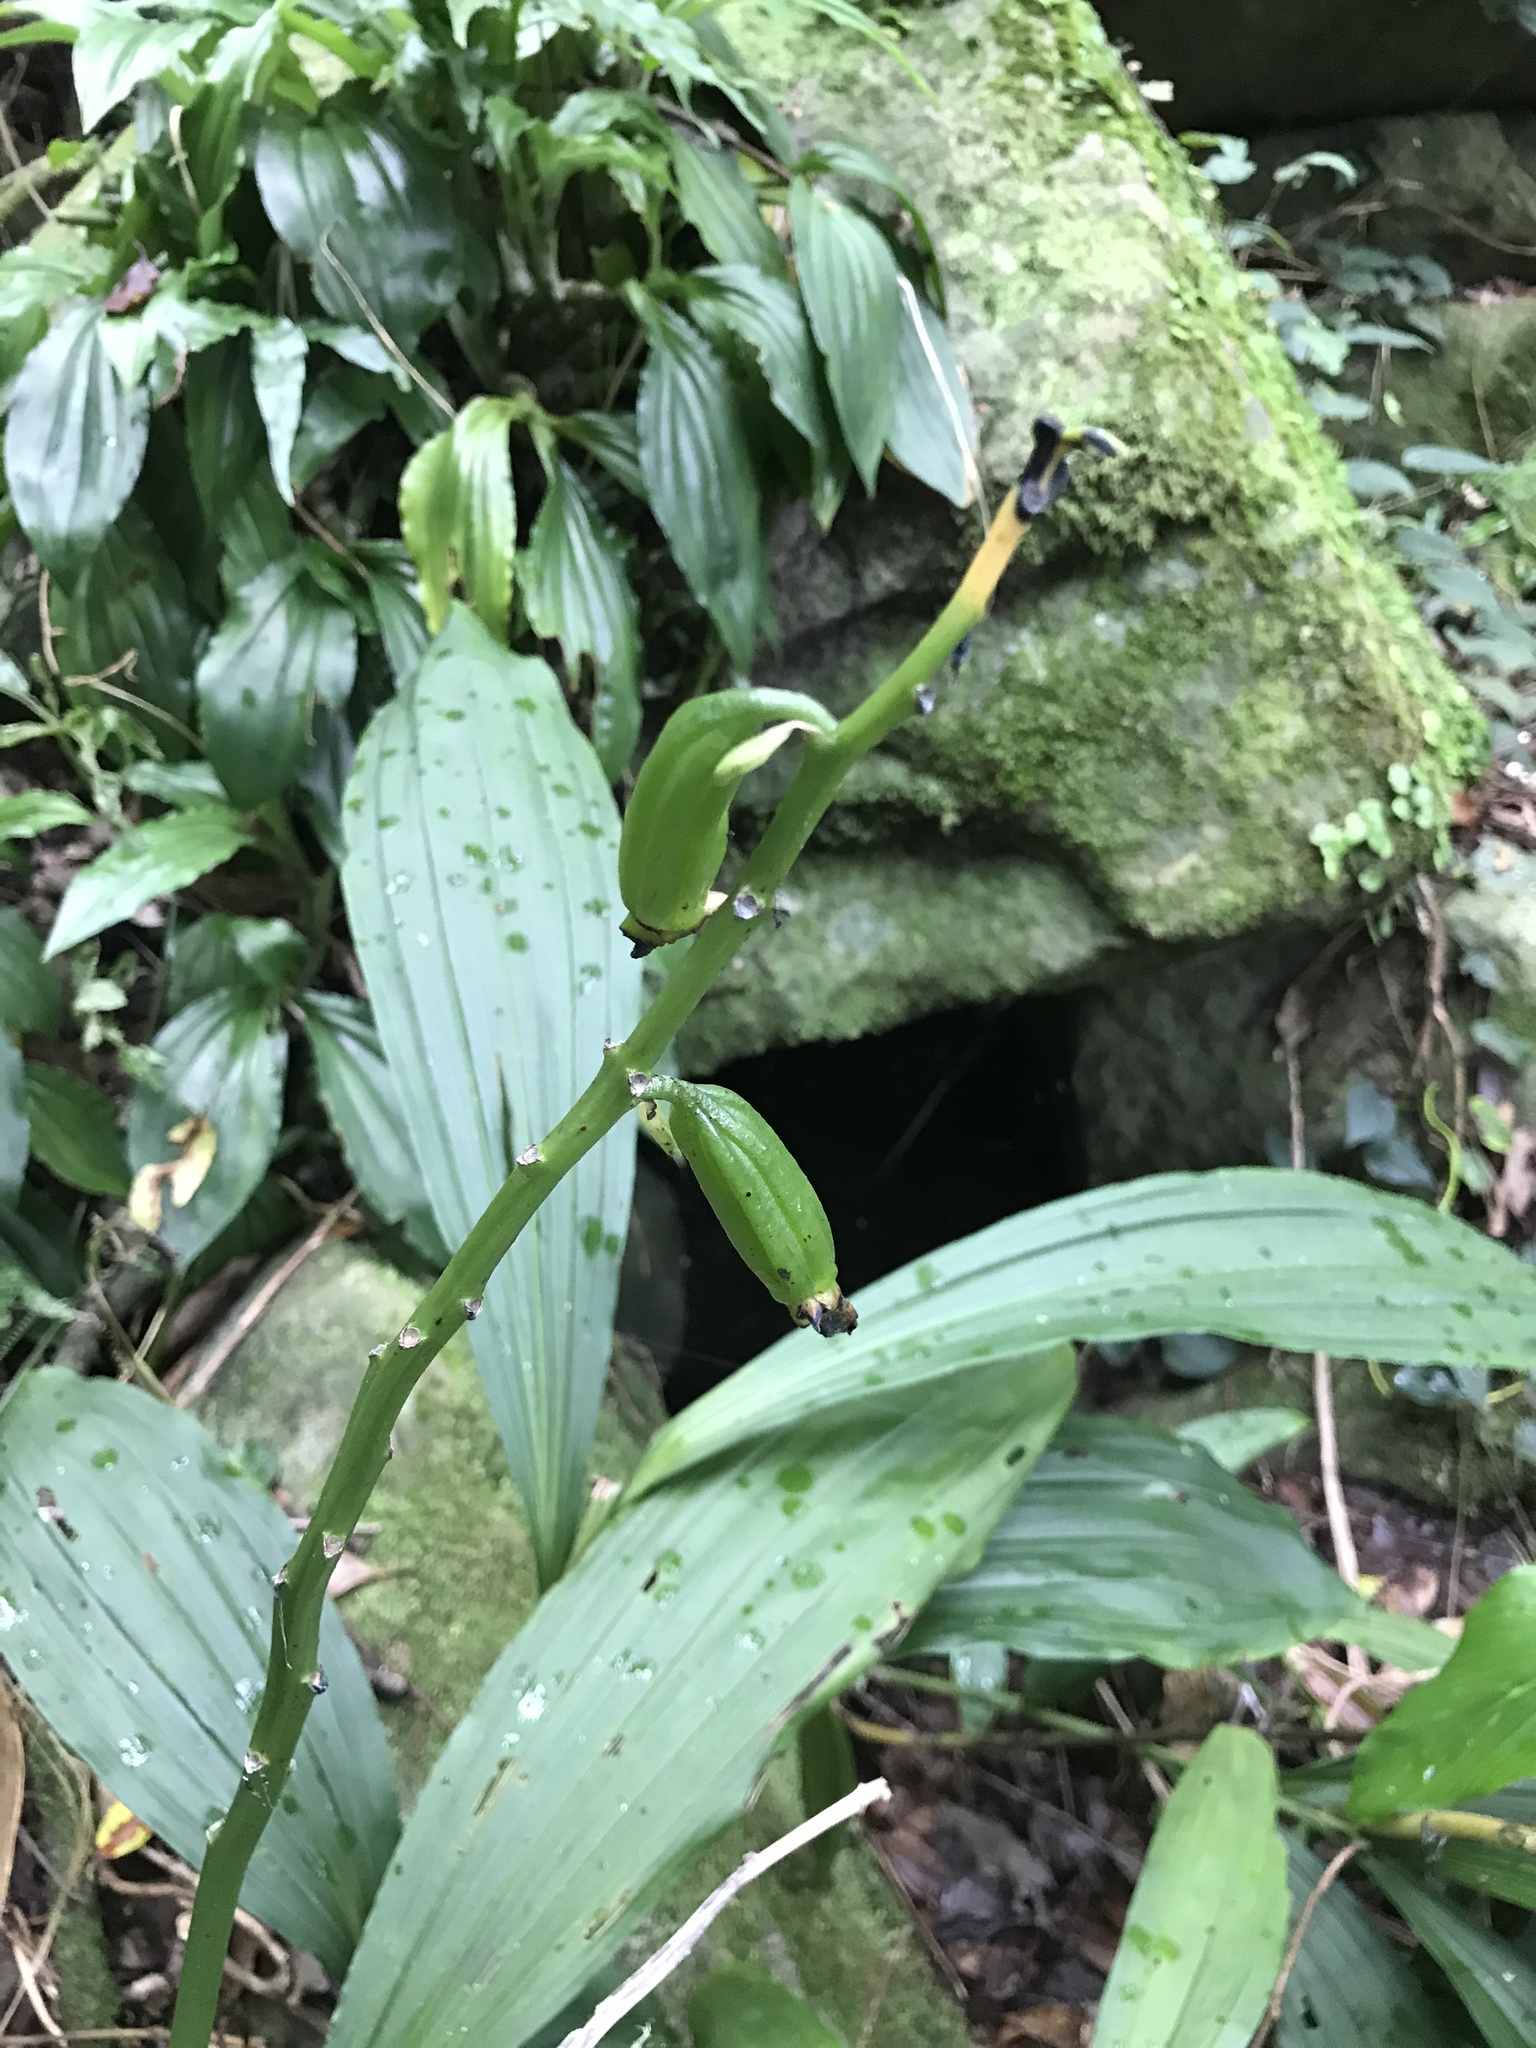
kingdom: Plantae
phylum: Tracheophyta
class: Liliopsida
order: Asparagales
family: Orchidaceae
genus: Calanthe
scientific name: Calanthe woodfordii
